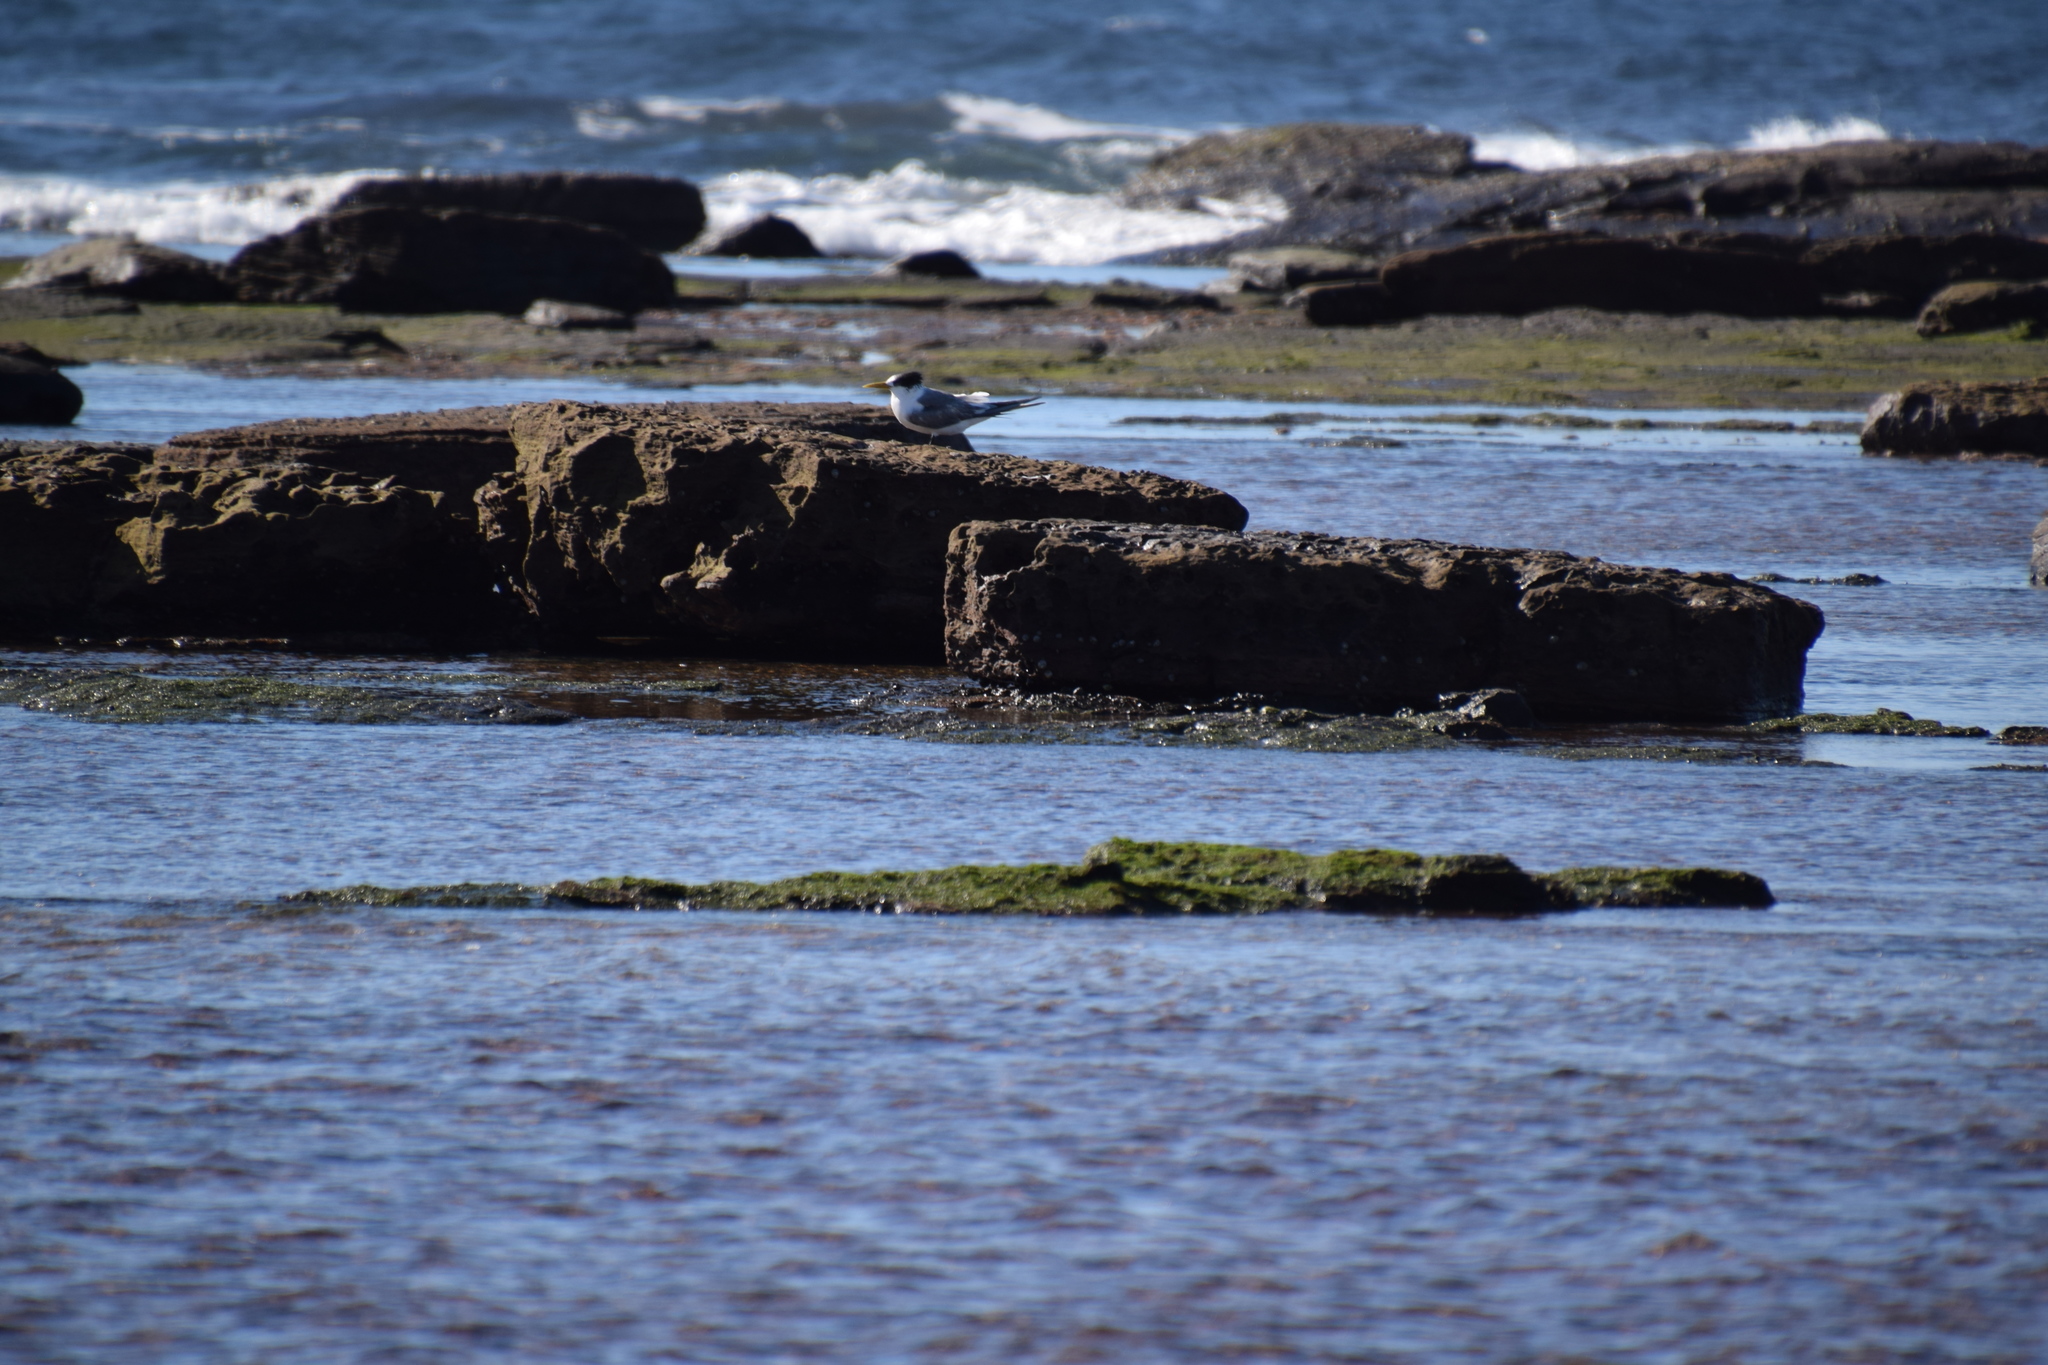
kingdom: Animalia
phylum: Chordata
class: Aves
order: Charadriiformes
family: Laridae
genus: Thalasseus
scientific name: Thalasseus bergii
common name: Greater crested tern
